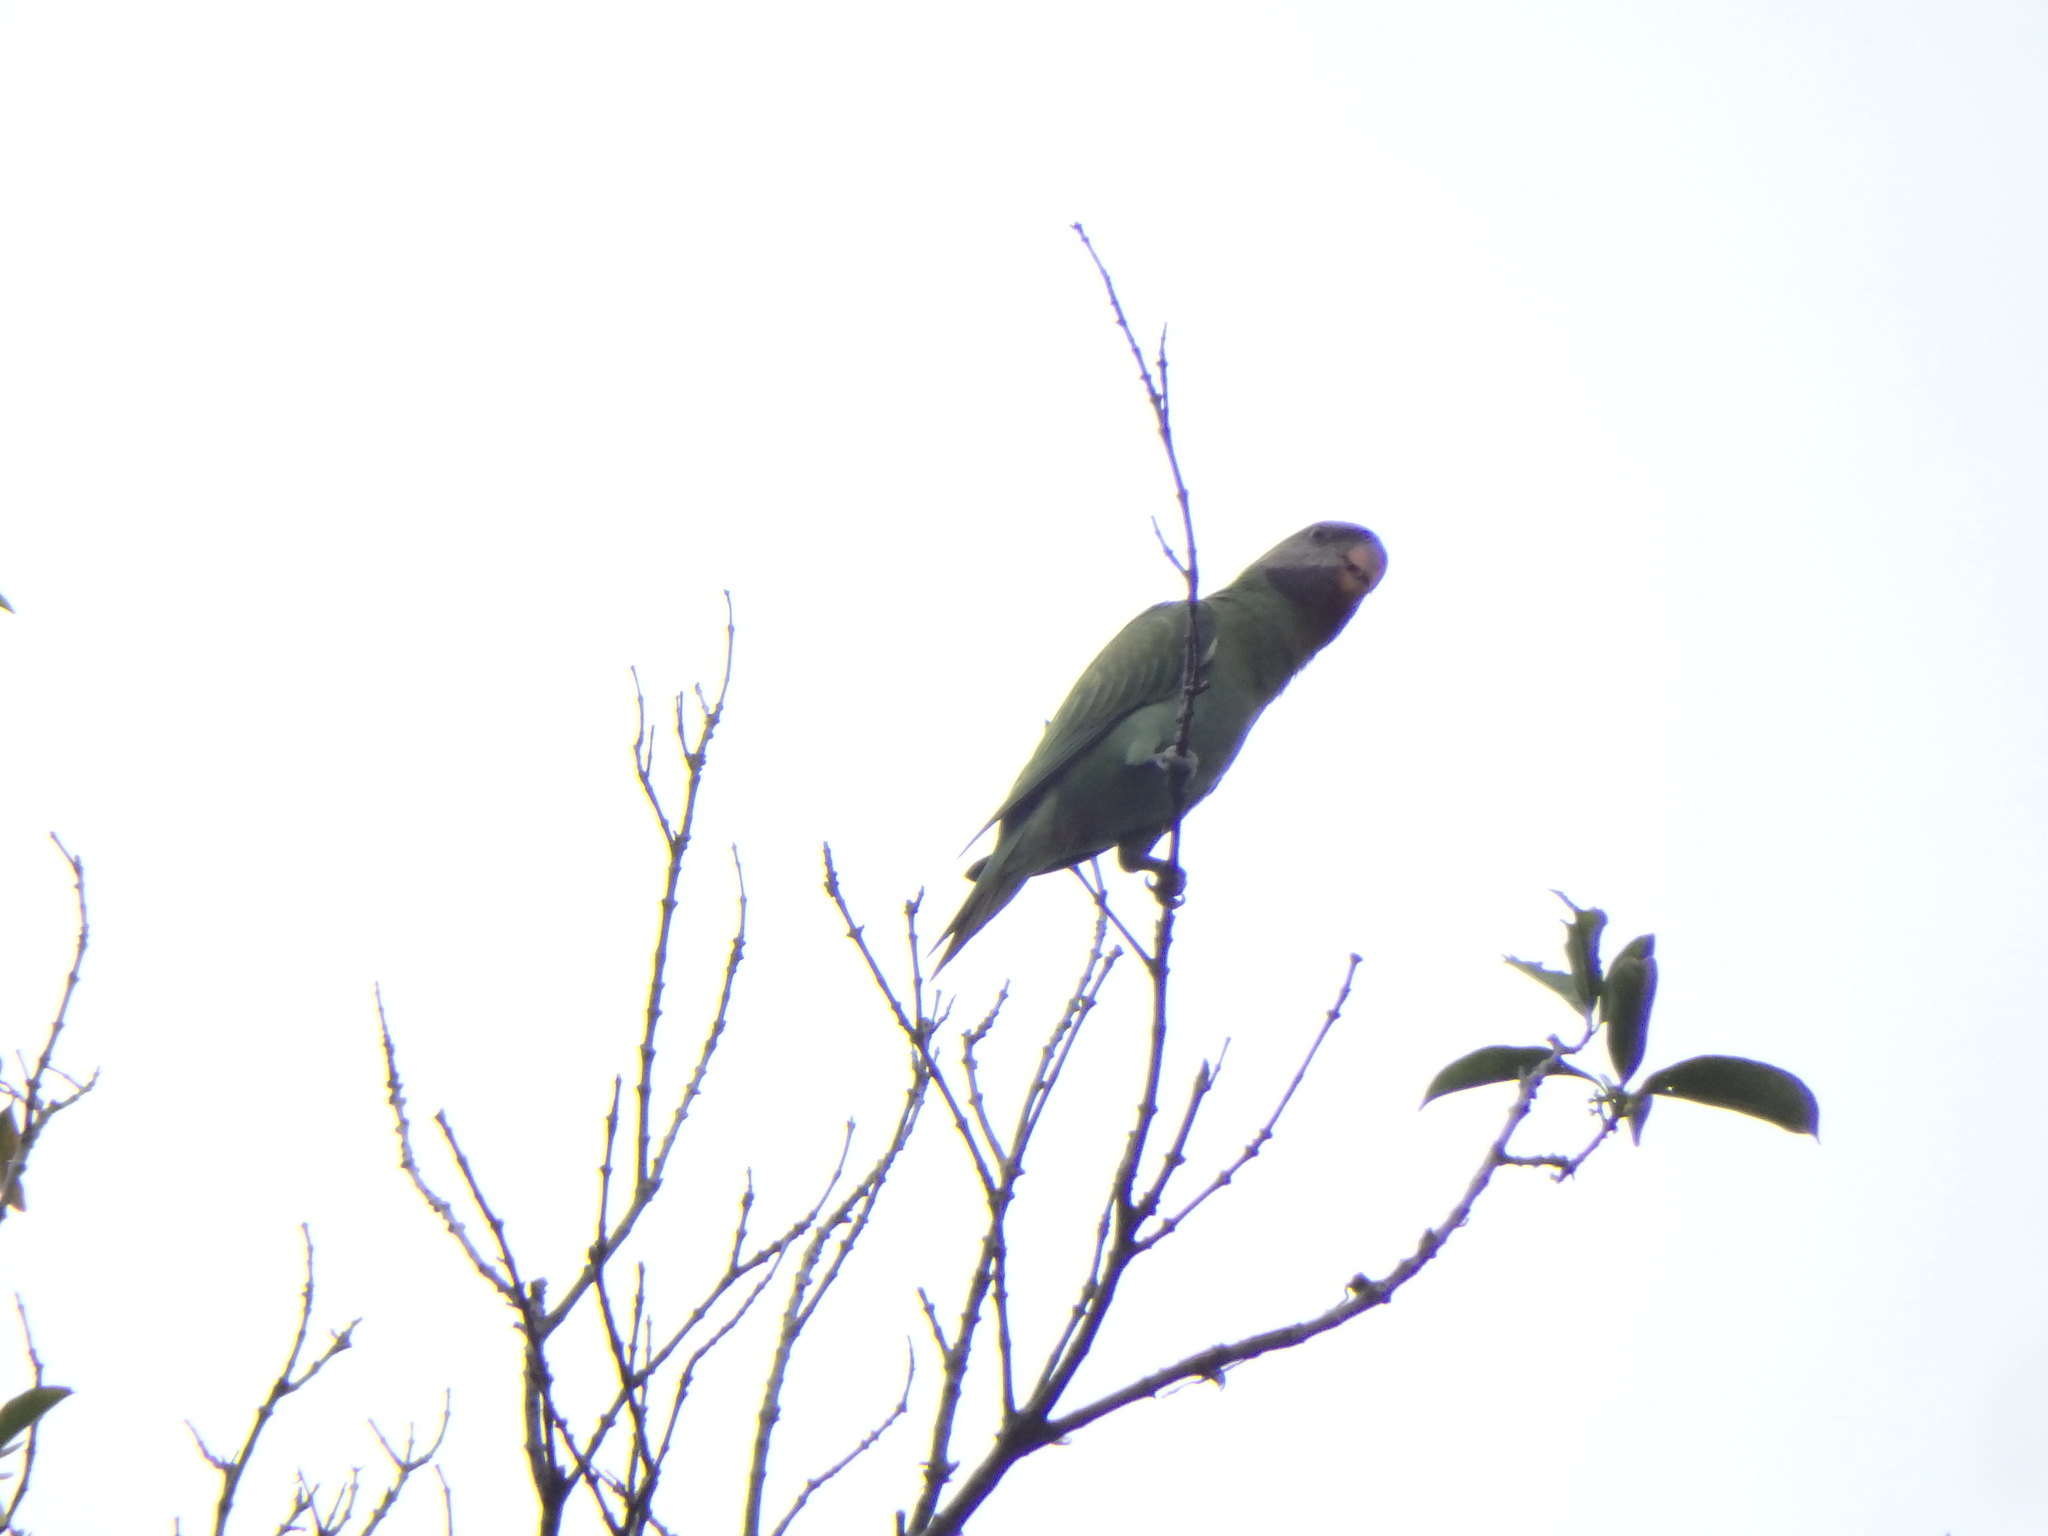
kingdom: Animalia
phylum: Chordata
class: Aves
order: Psittaciformes
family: Psittacidae
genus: Psittacula
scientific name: Psittacula alexandri
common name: Red-breasted parakeet
